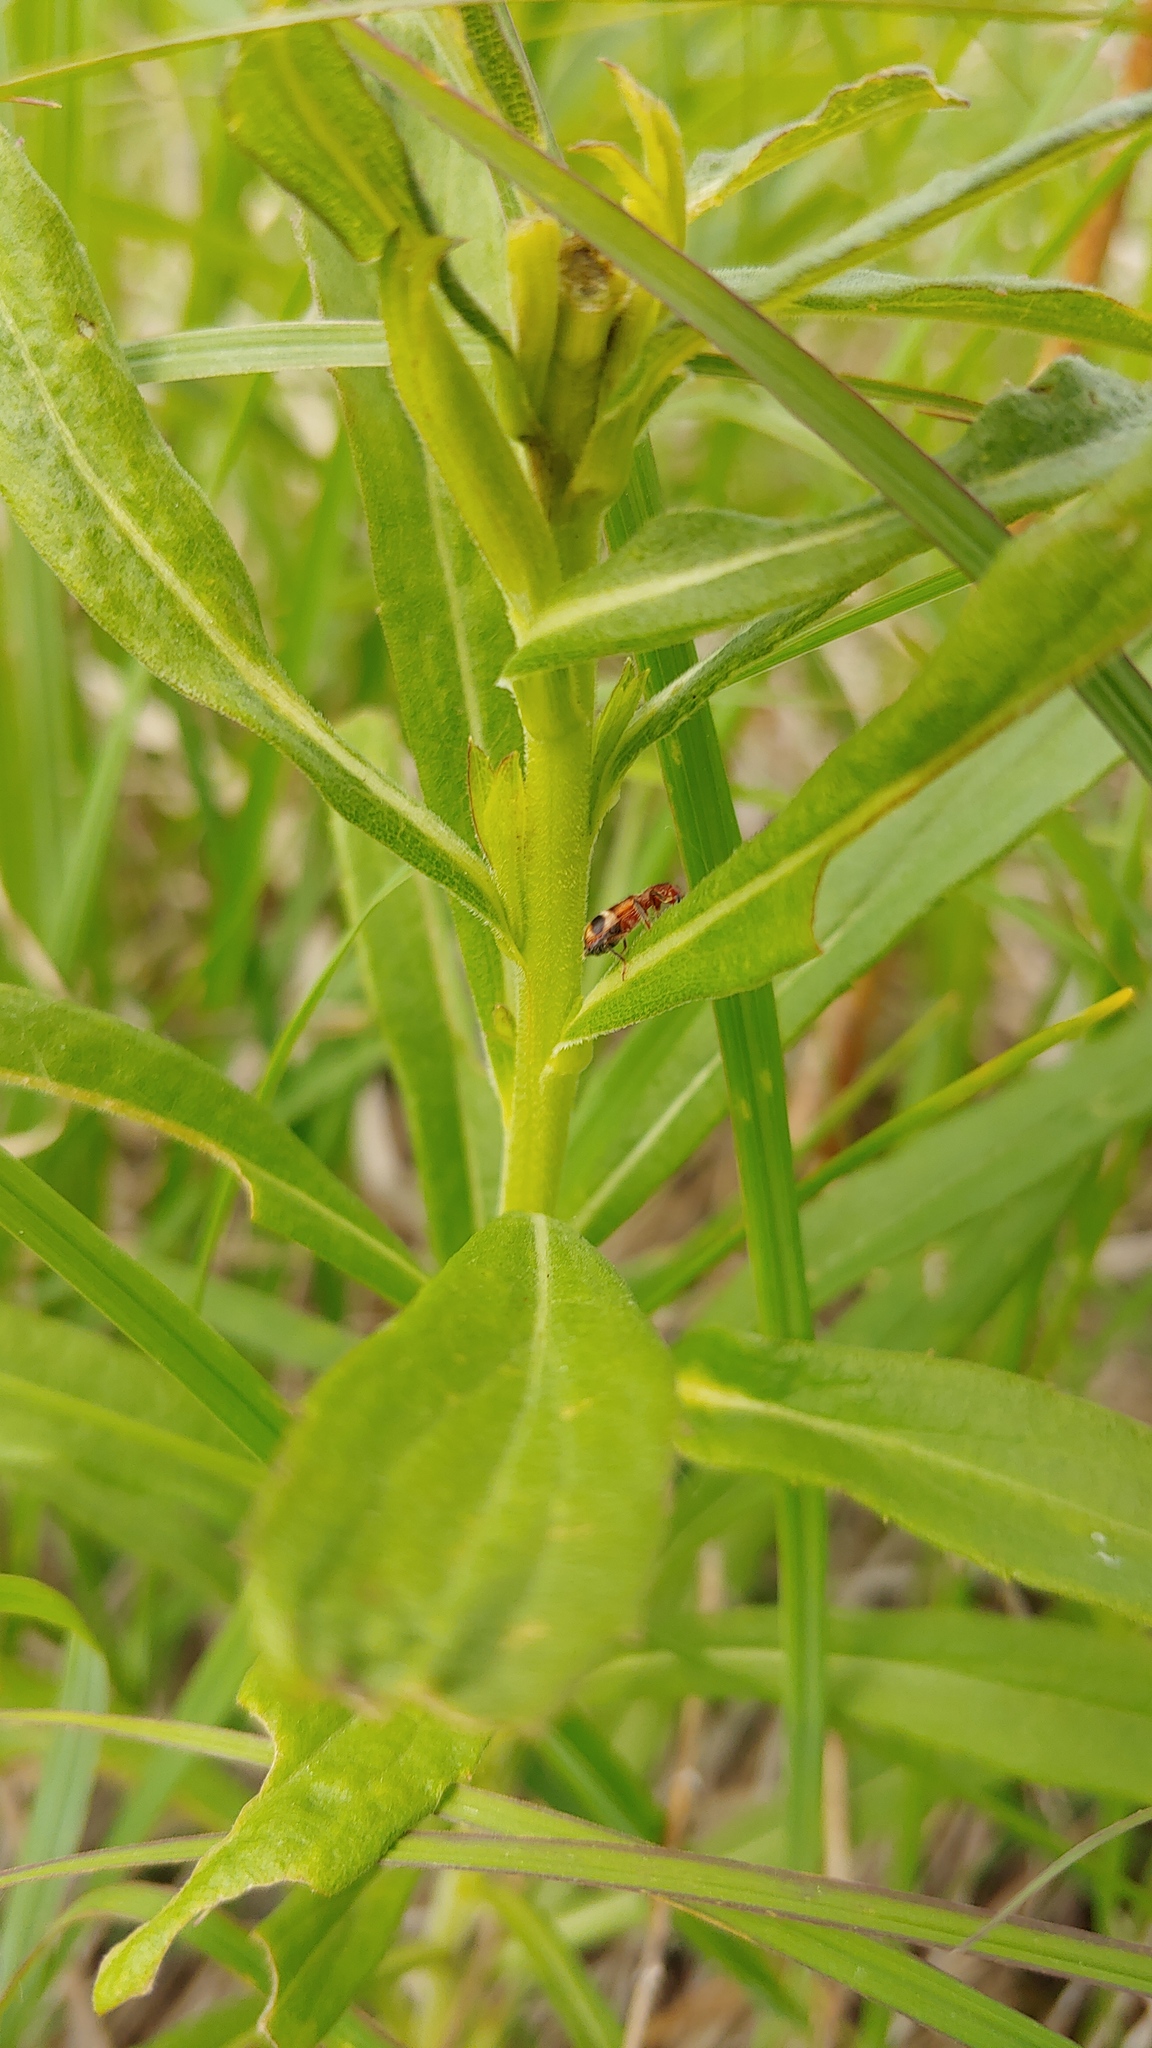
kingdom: Animalia
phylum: Arthropoda
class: Insecta
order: Coleoptera
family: Cleridae
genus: Enoclerus
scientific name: Enoclerus rosmarus
